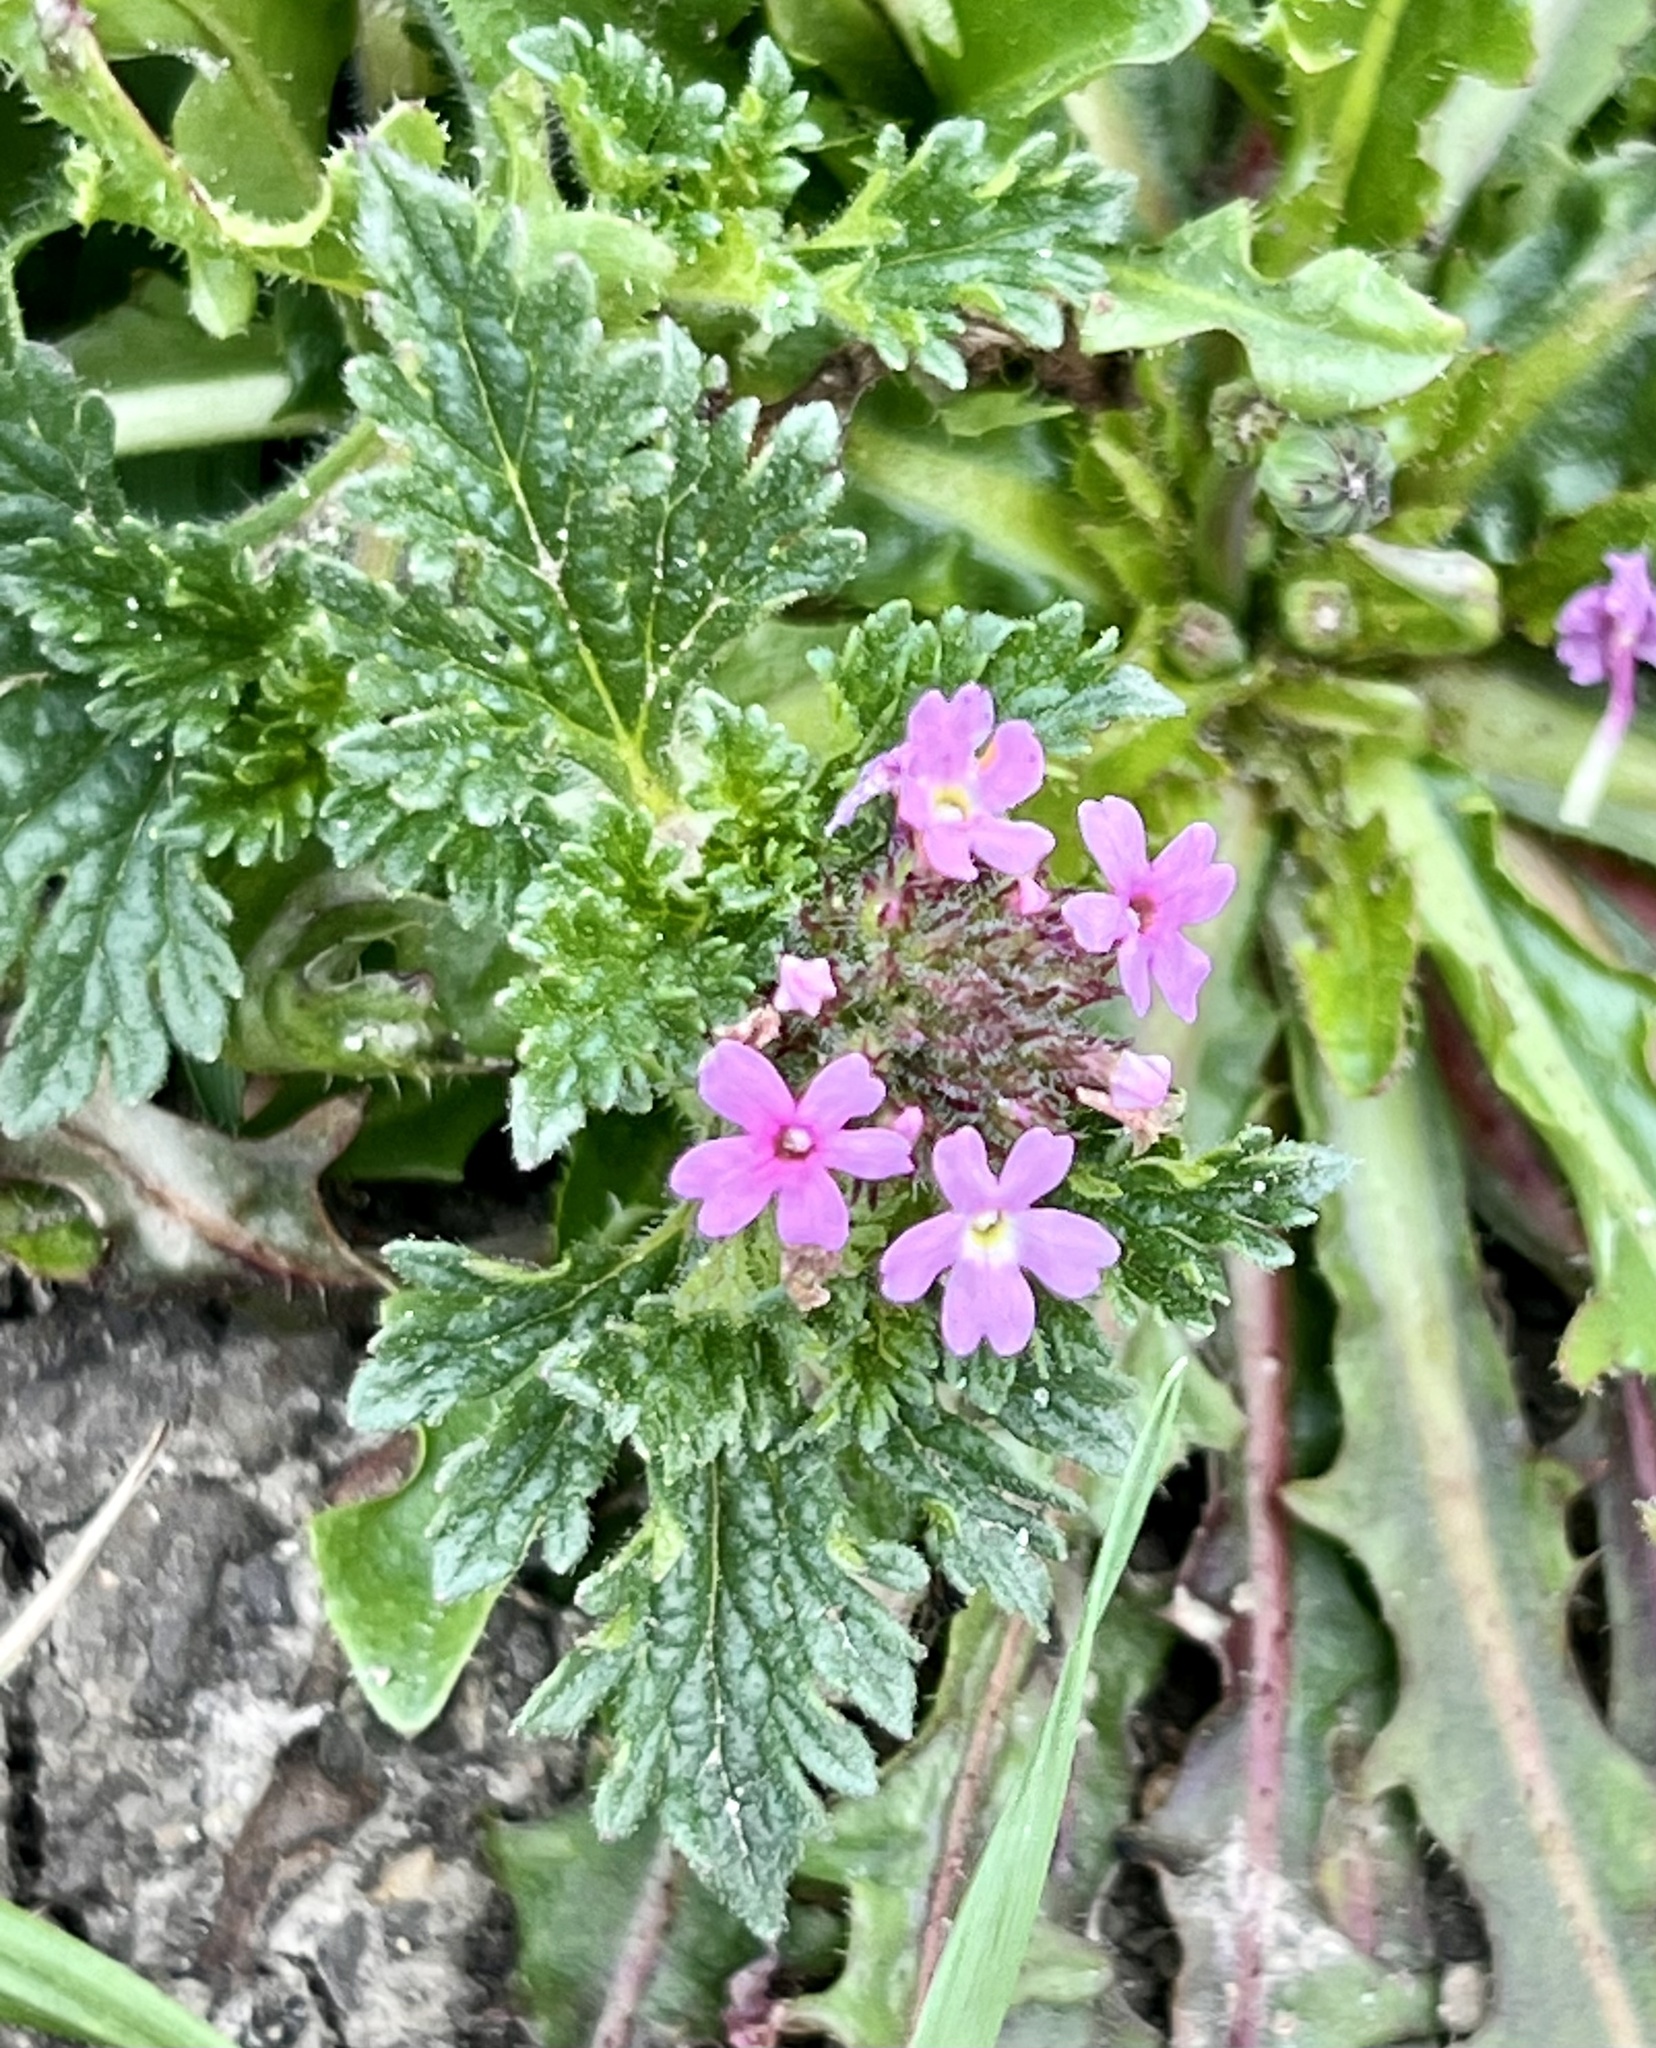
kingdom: Plantae
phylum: Tracheophyta
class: Magnoliopsida
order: Lamiales
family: Verbenaceae
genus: Verbena
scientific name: Verbena pumila
